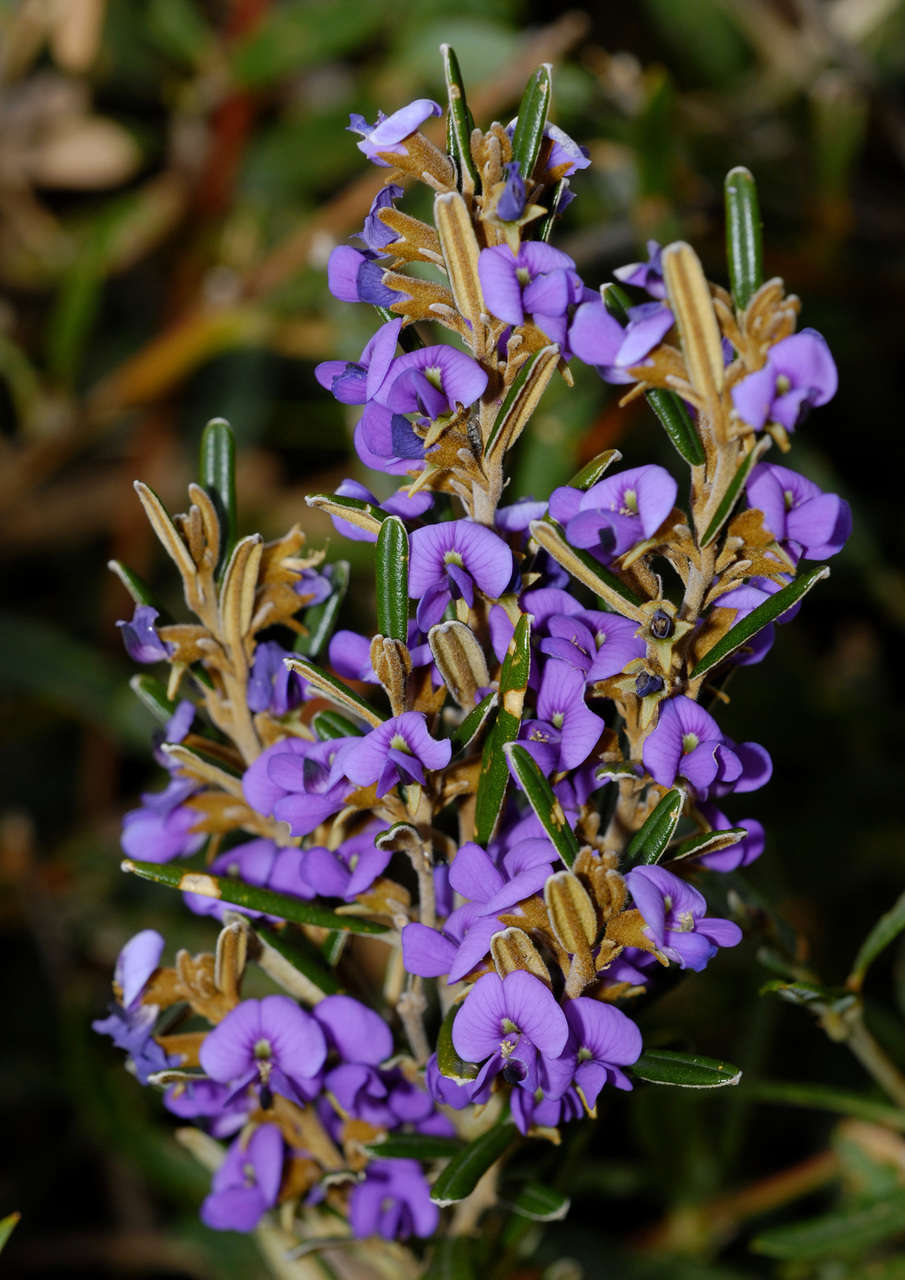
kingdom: Plantae
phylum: Tracheophyta
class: Magnoliopsida
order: Fabales
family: Fabaceae
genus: Hovea
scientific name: Hovea montana
